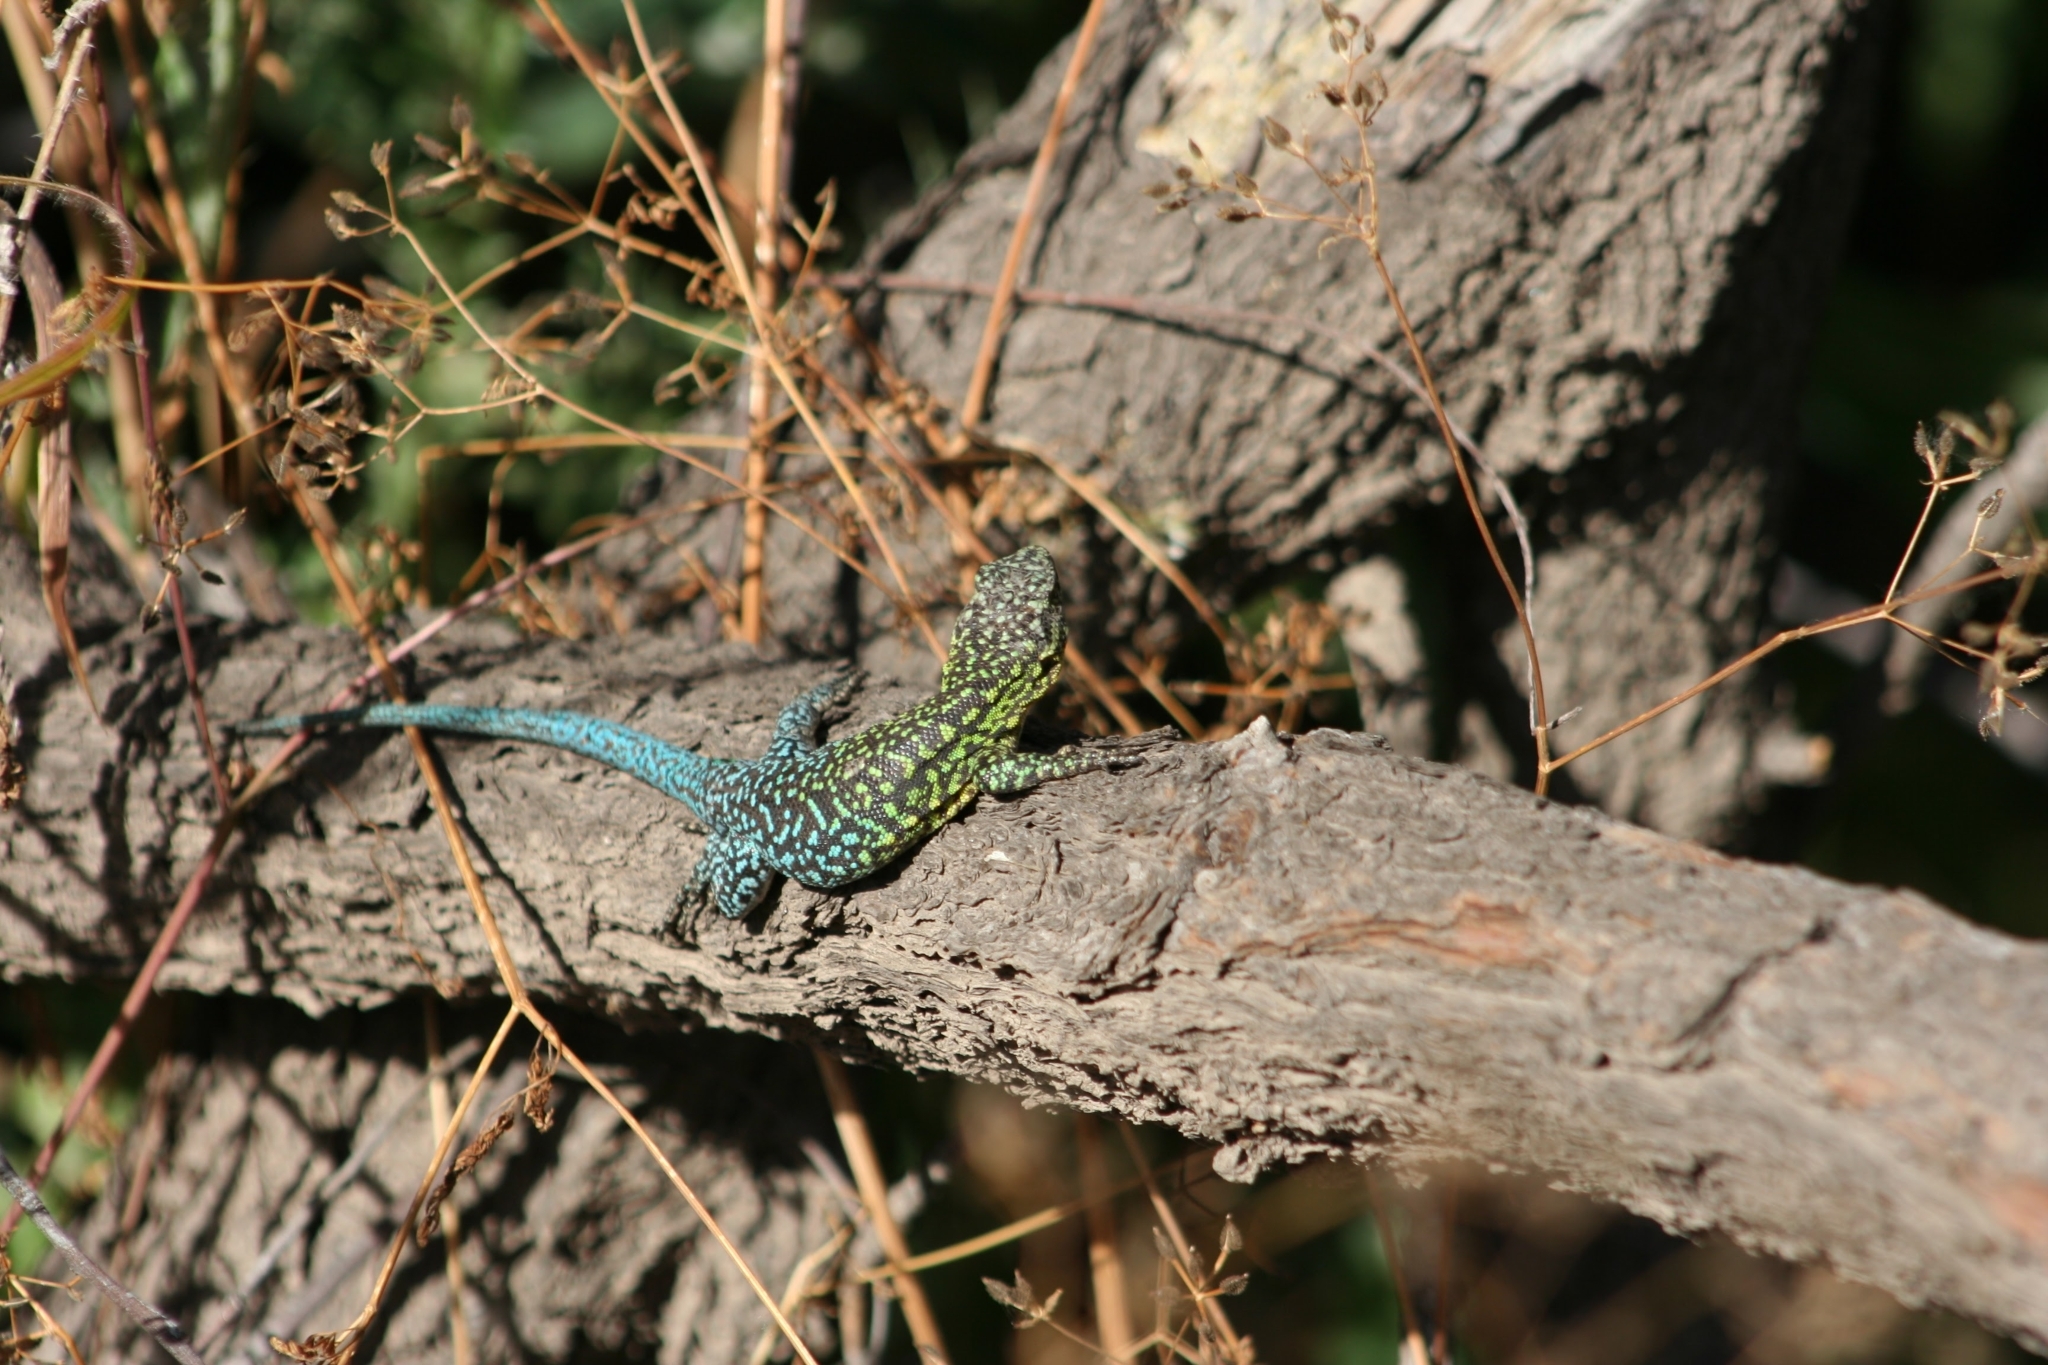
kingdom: Animalia
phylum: Chordata
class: Squamata
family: Liolaemidae
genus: Liolaemus
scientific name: Liolaemus tenuis
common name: Thin tree iguana
